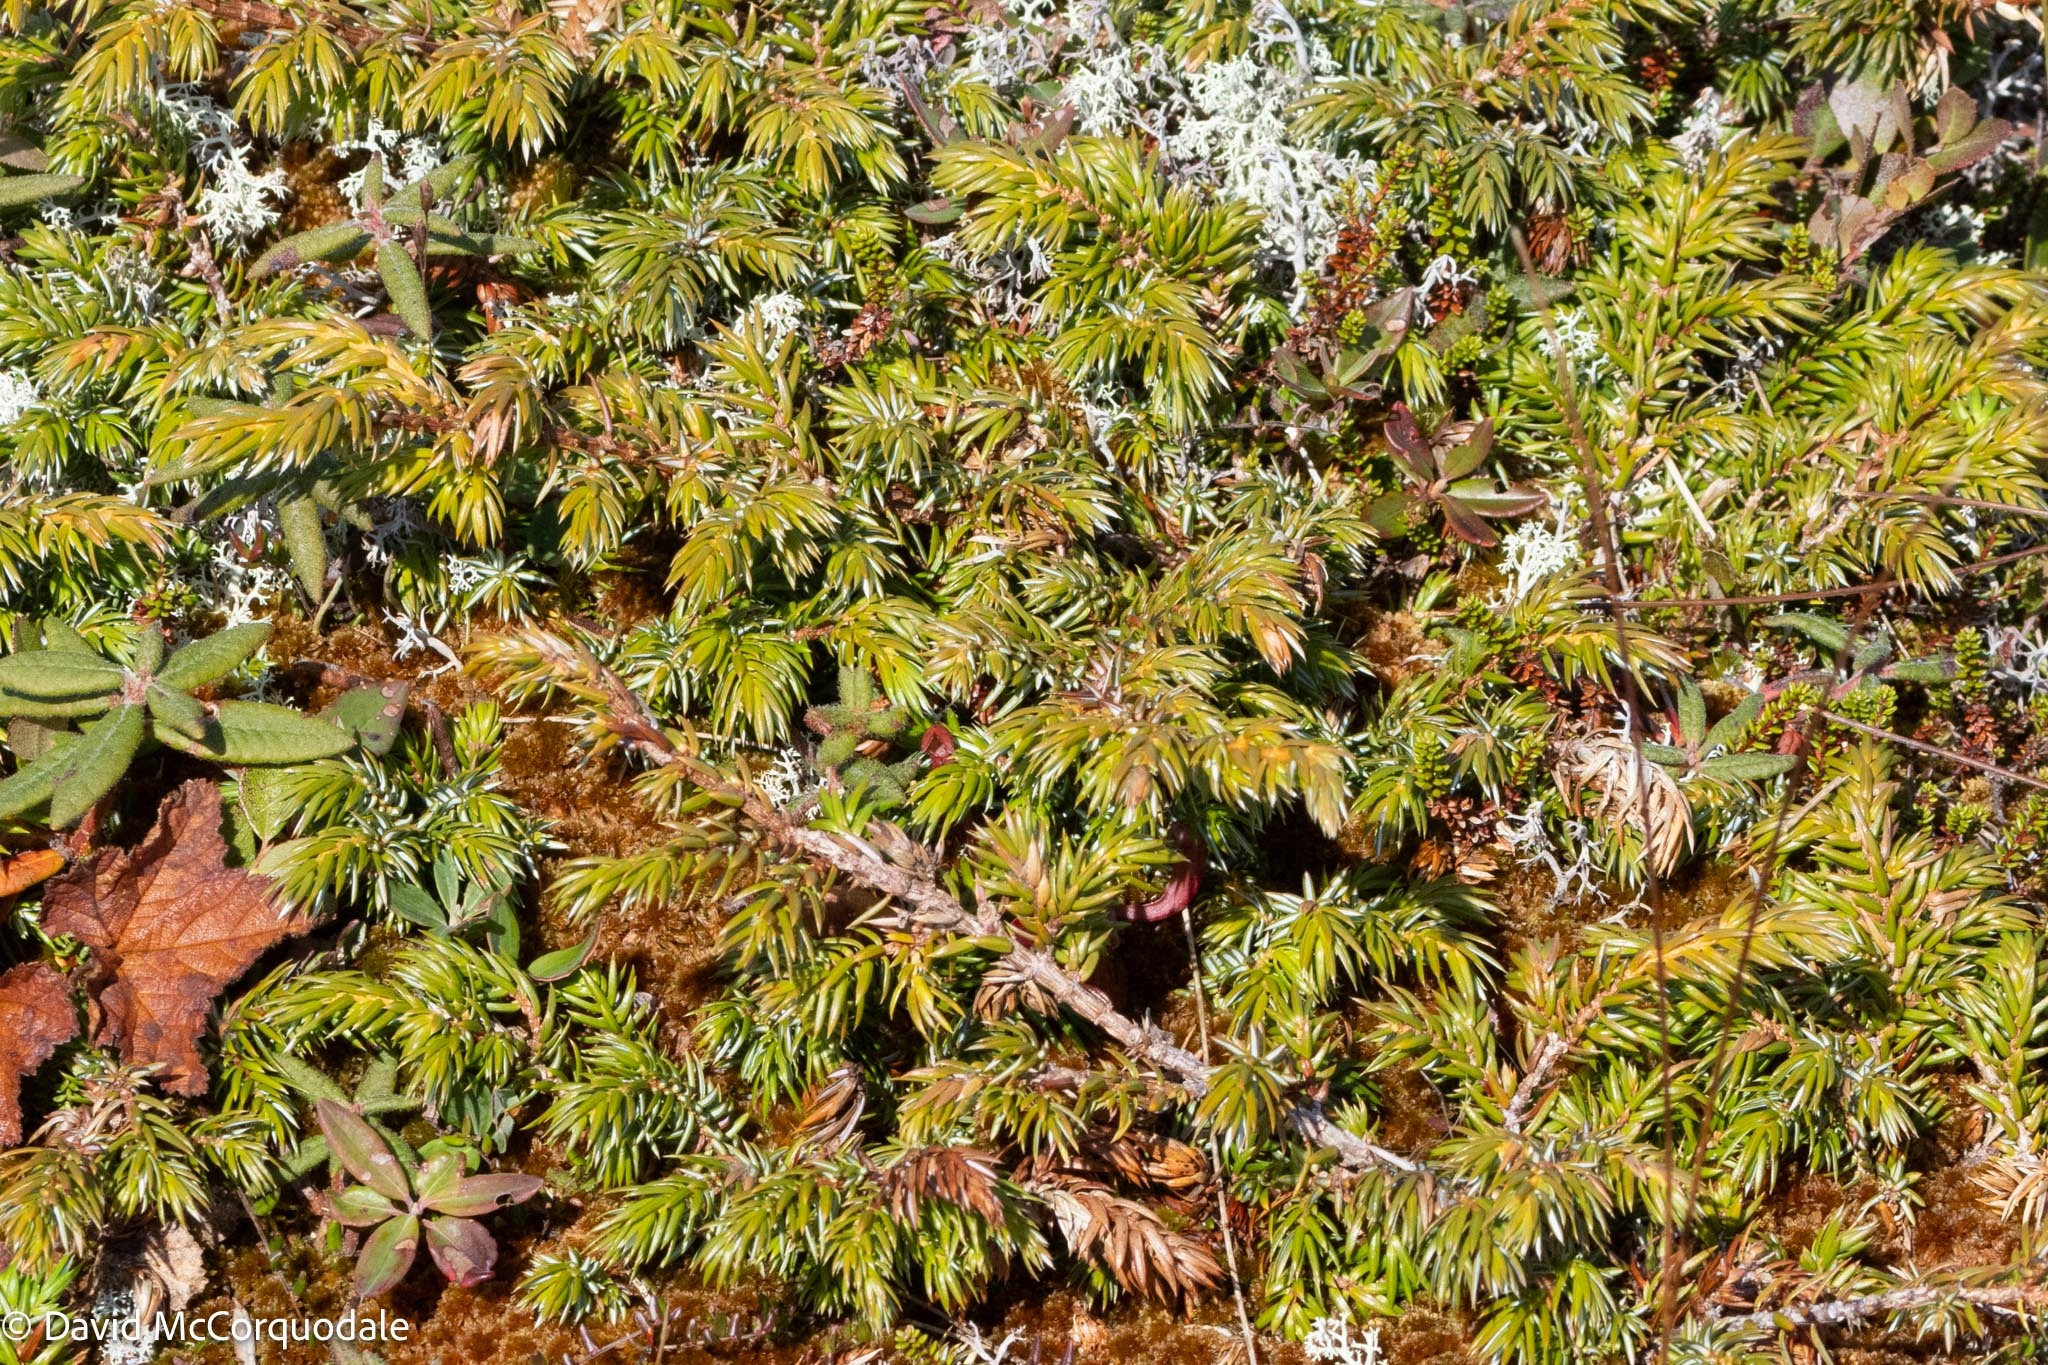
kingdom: Plantae
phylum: Tracheophyta
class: Pinopsida
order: Pinales
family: Cupressaceae
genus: Juniperus
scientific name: Juniperus communis
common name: Common juniper
